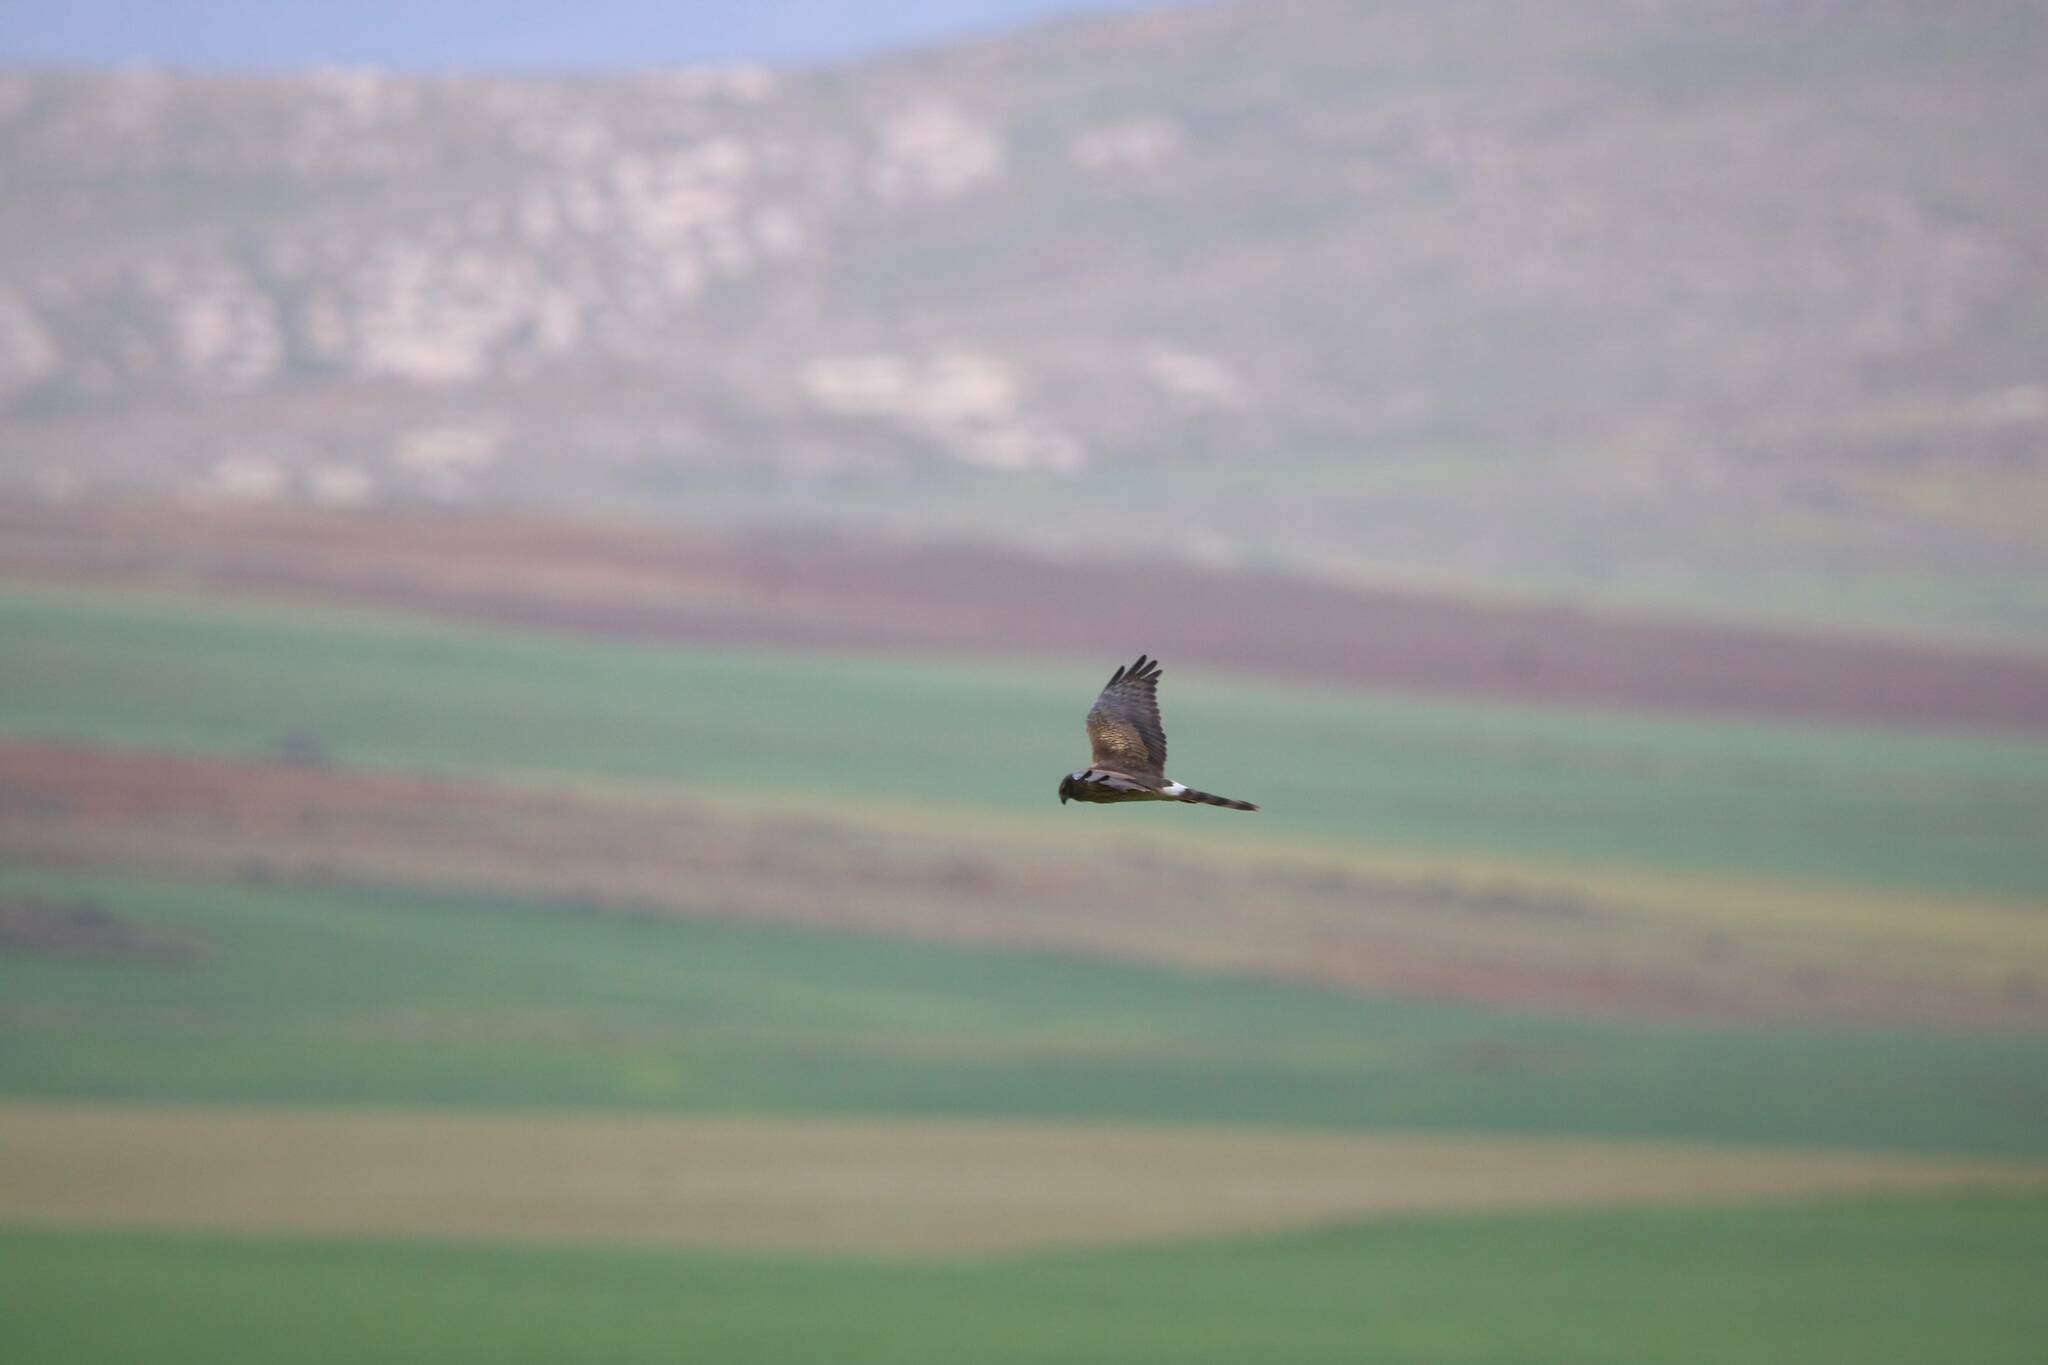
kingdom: Animalia
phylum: Chordata
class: Aves
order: Accipitriformes
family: Accipitridae
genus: Circus
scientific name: Circus pygargus
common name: Montagu's harrier
